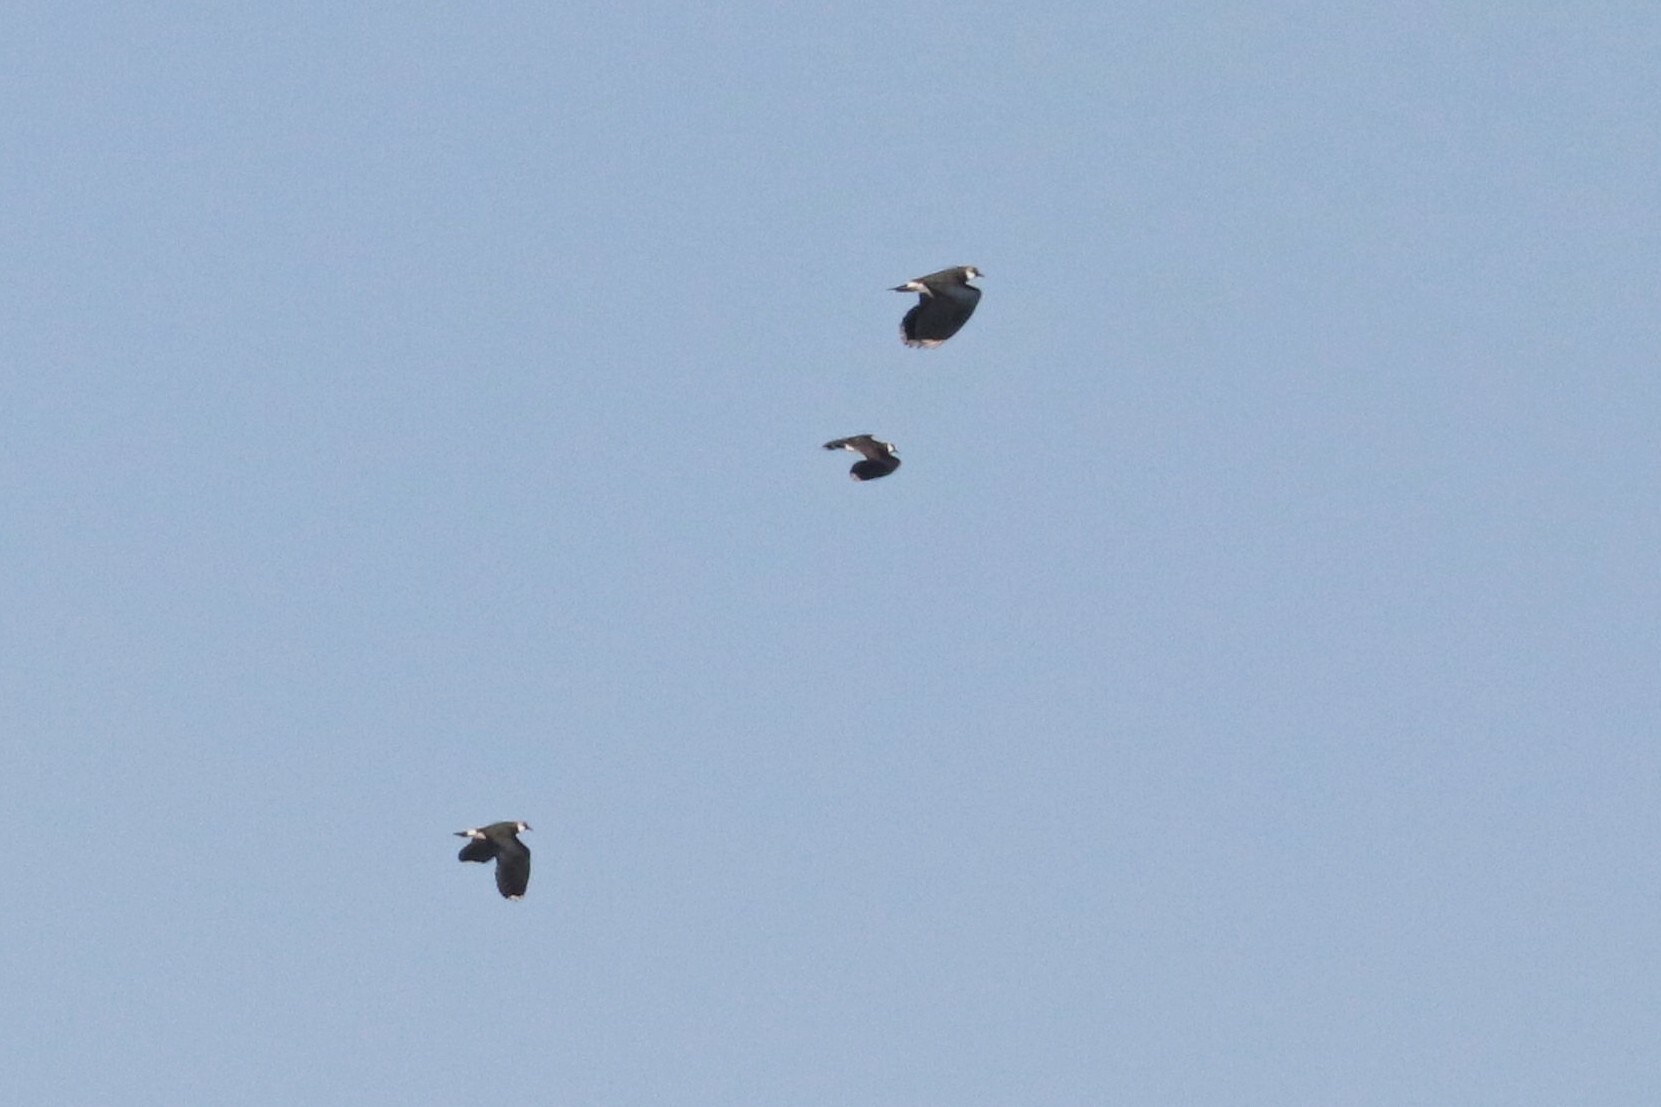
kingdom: Animalia
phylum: Chordata
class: Aves
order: Charadriiformes
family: Charadriidae
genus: Vanellus
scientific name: Vanellus vanellus
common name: Northern lapwing
